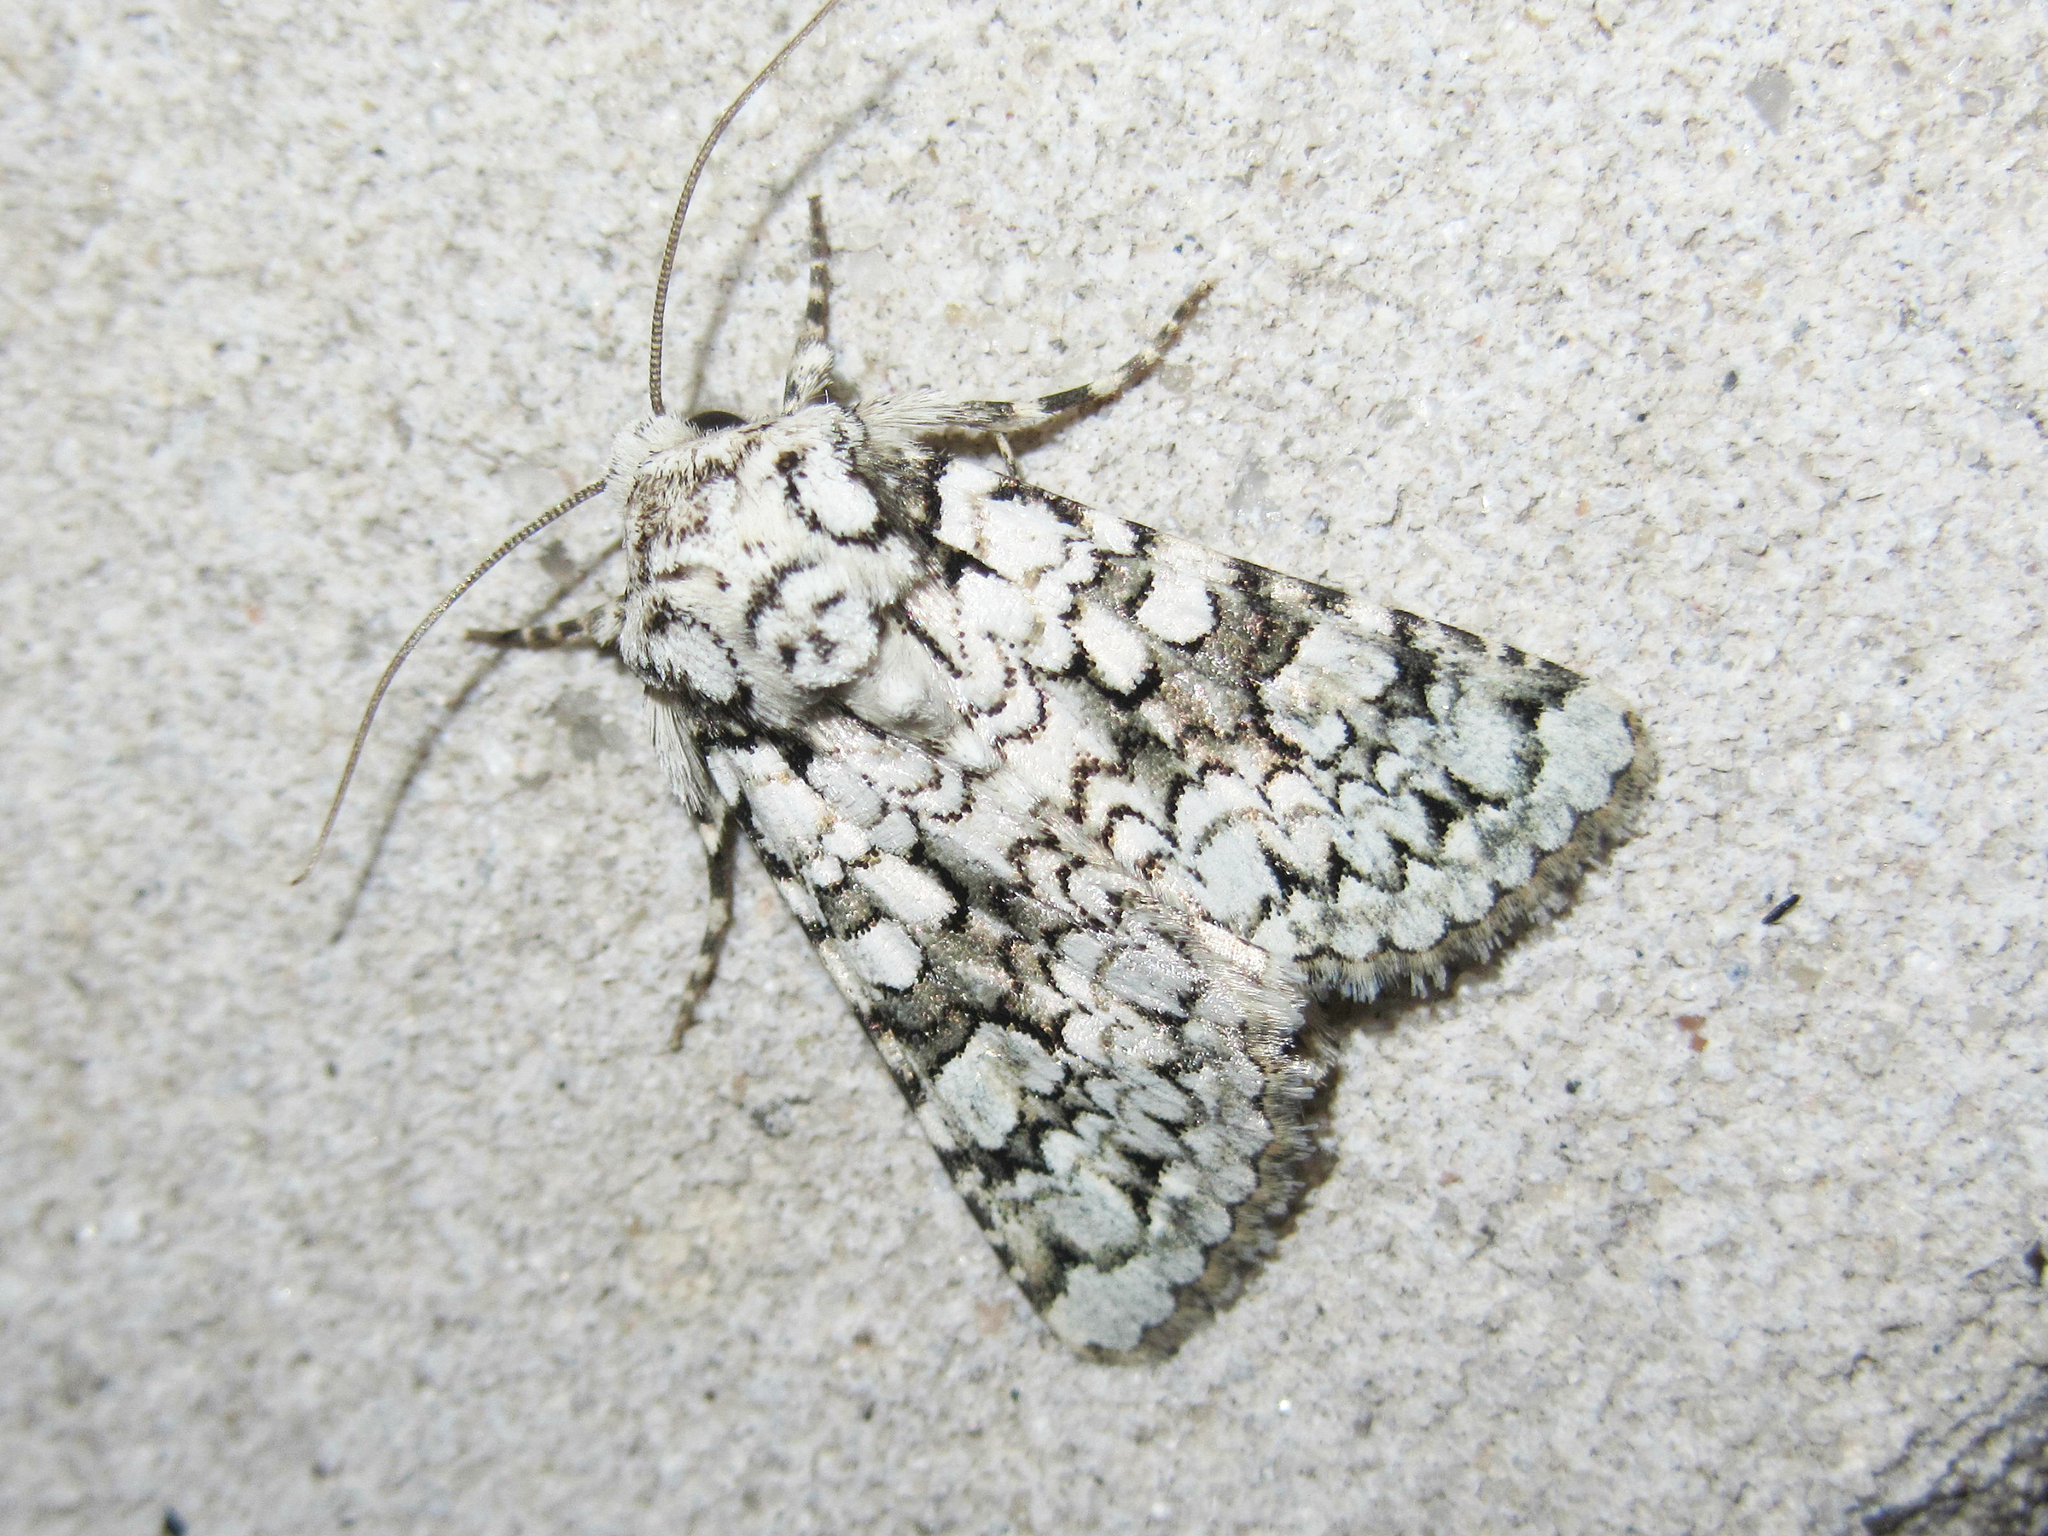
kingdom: Animalia
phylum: Arthropoda
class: Insecta
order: Lepidoptera
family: Noctuidae
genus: Hecatera
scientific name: Hecatera cappa
